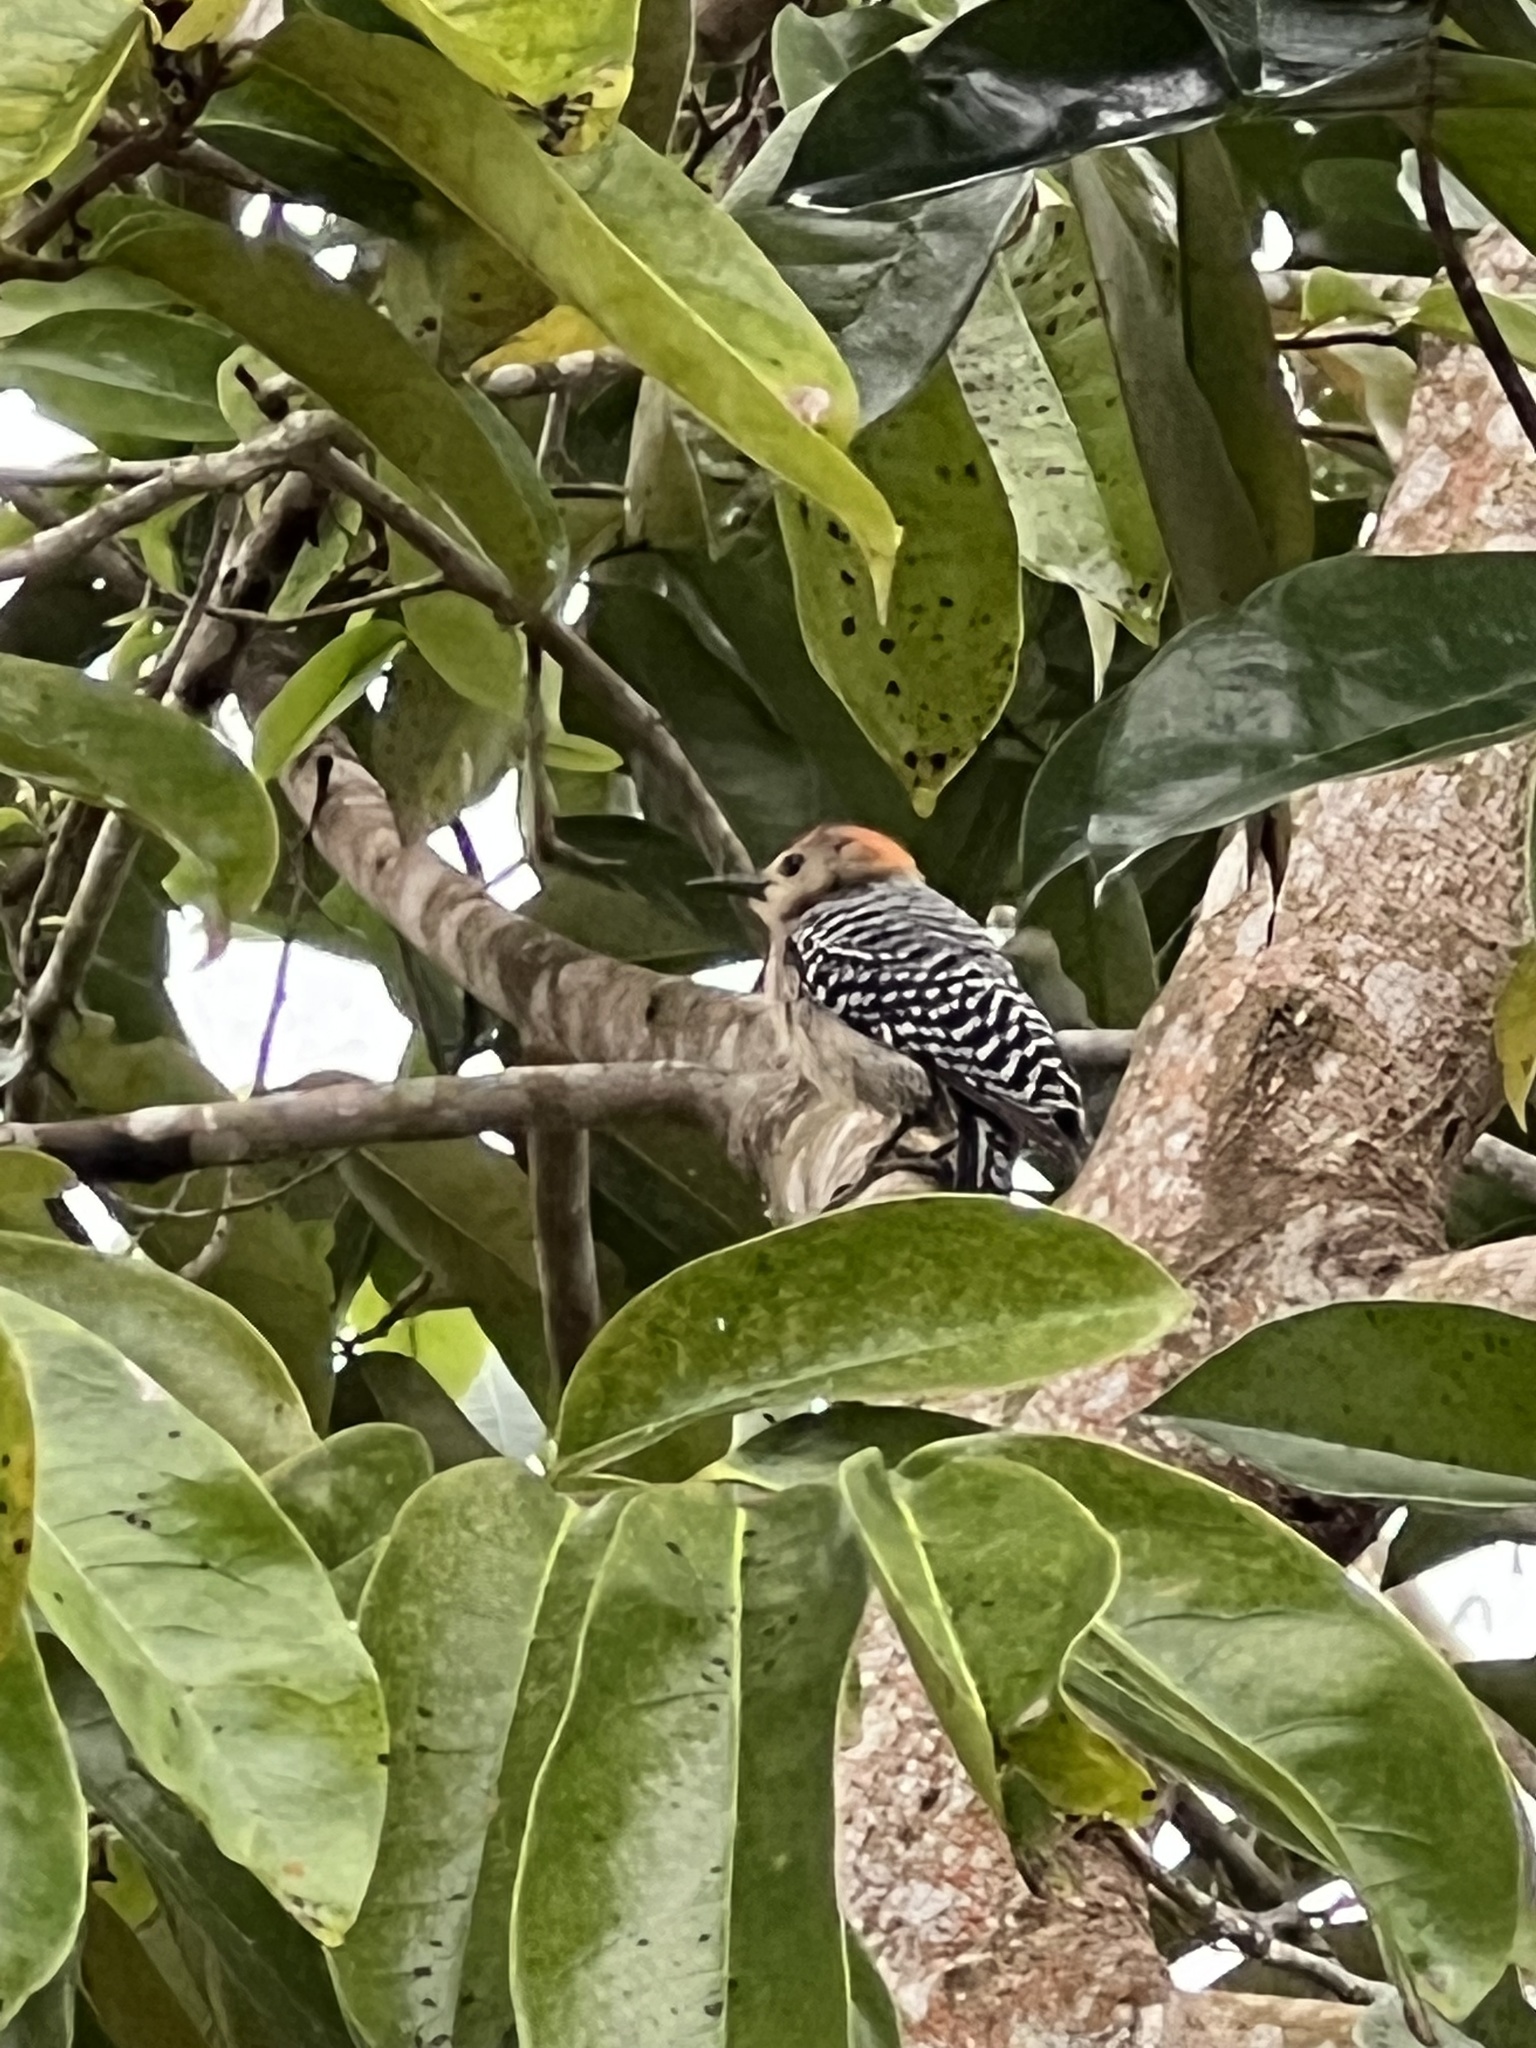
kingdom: Animalia
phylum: Chordata
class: Aves
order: Piciformes
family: Picidae
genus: Melanerpes
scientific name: Melanerpes rubricapillus
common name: Red-crowned woodpecker
